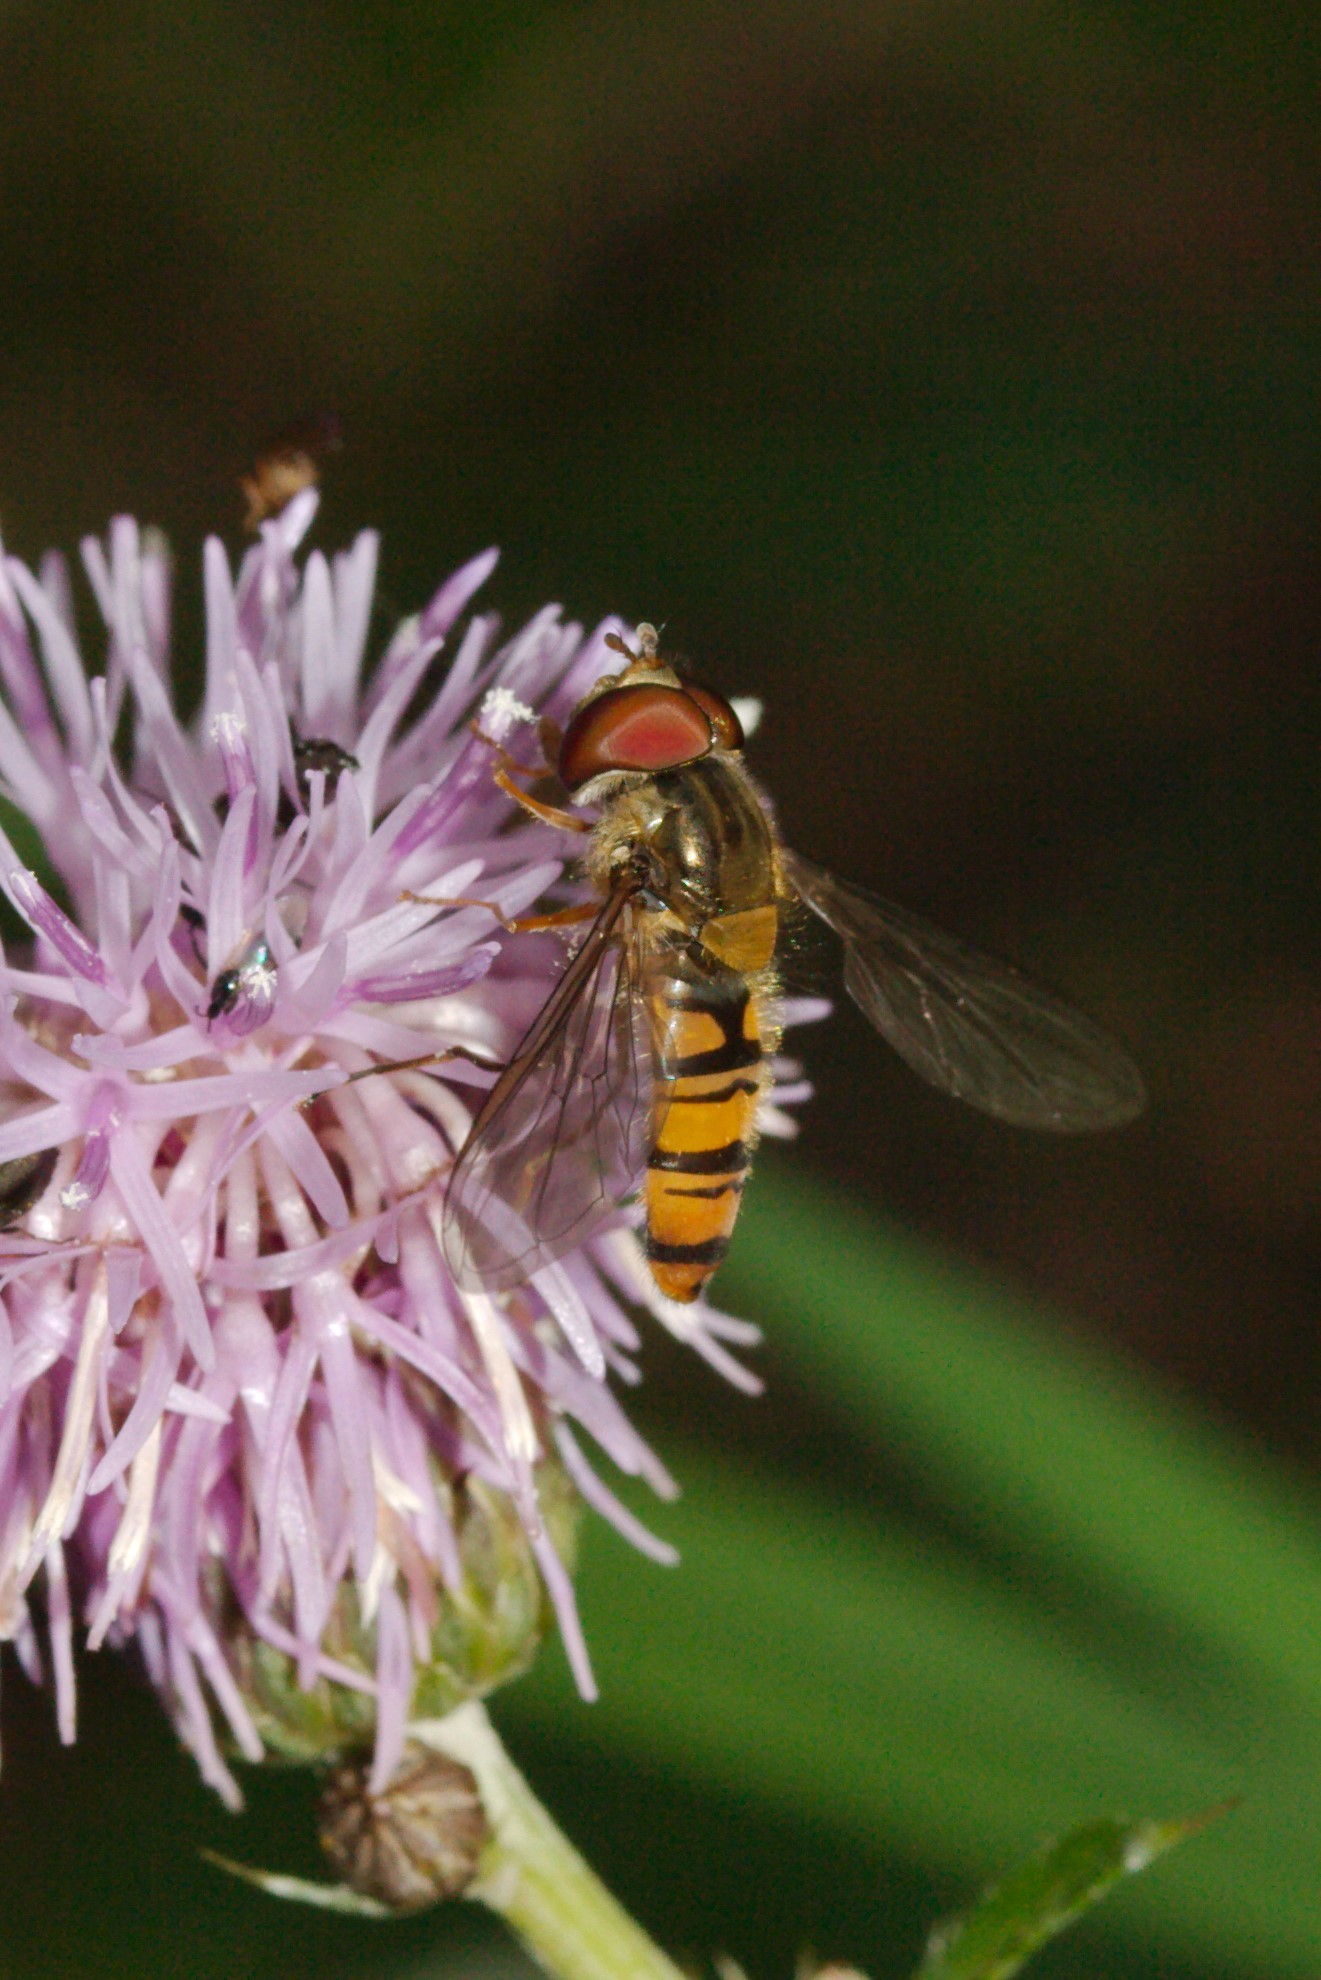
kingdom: Animalia
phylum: Arthropoda
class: Insecta
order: Diptera
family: Syrphidae
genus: Episyrphus
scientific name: Episyrphus balteatus
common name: Marmalade hoverfly
